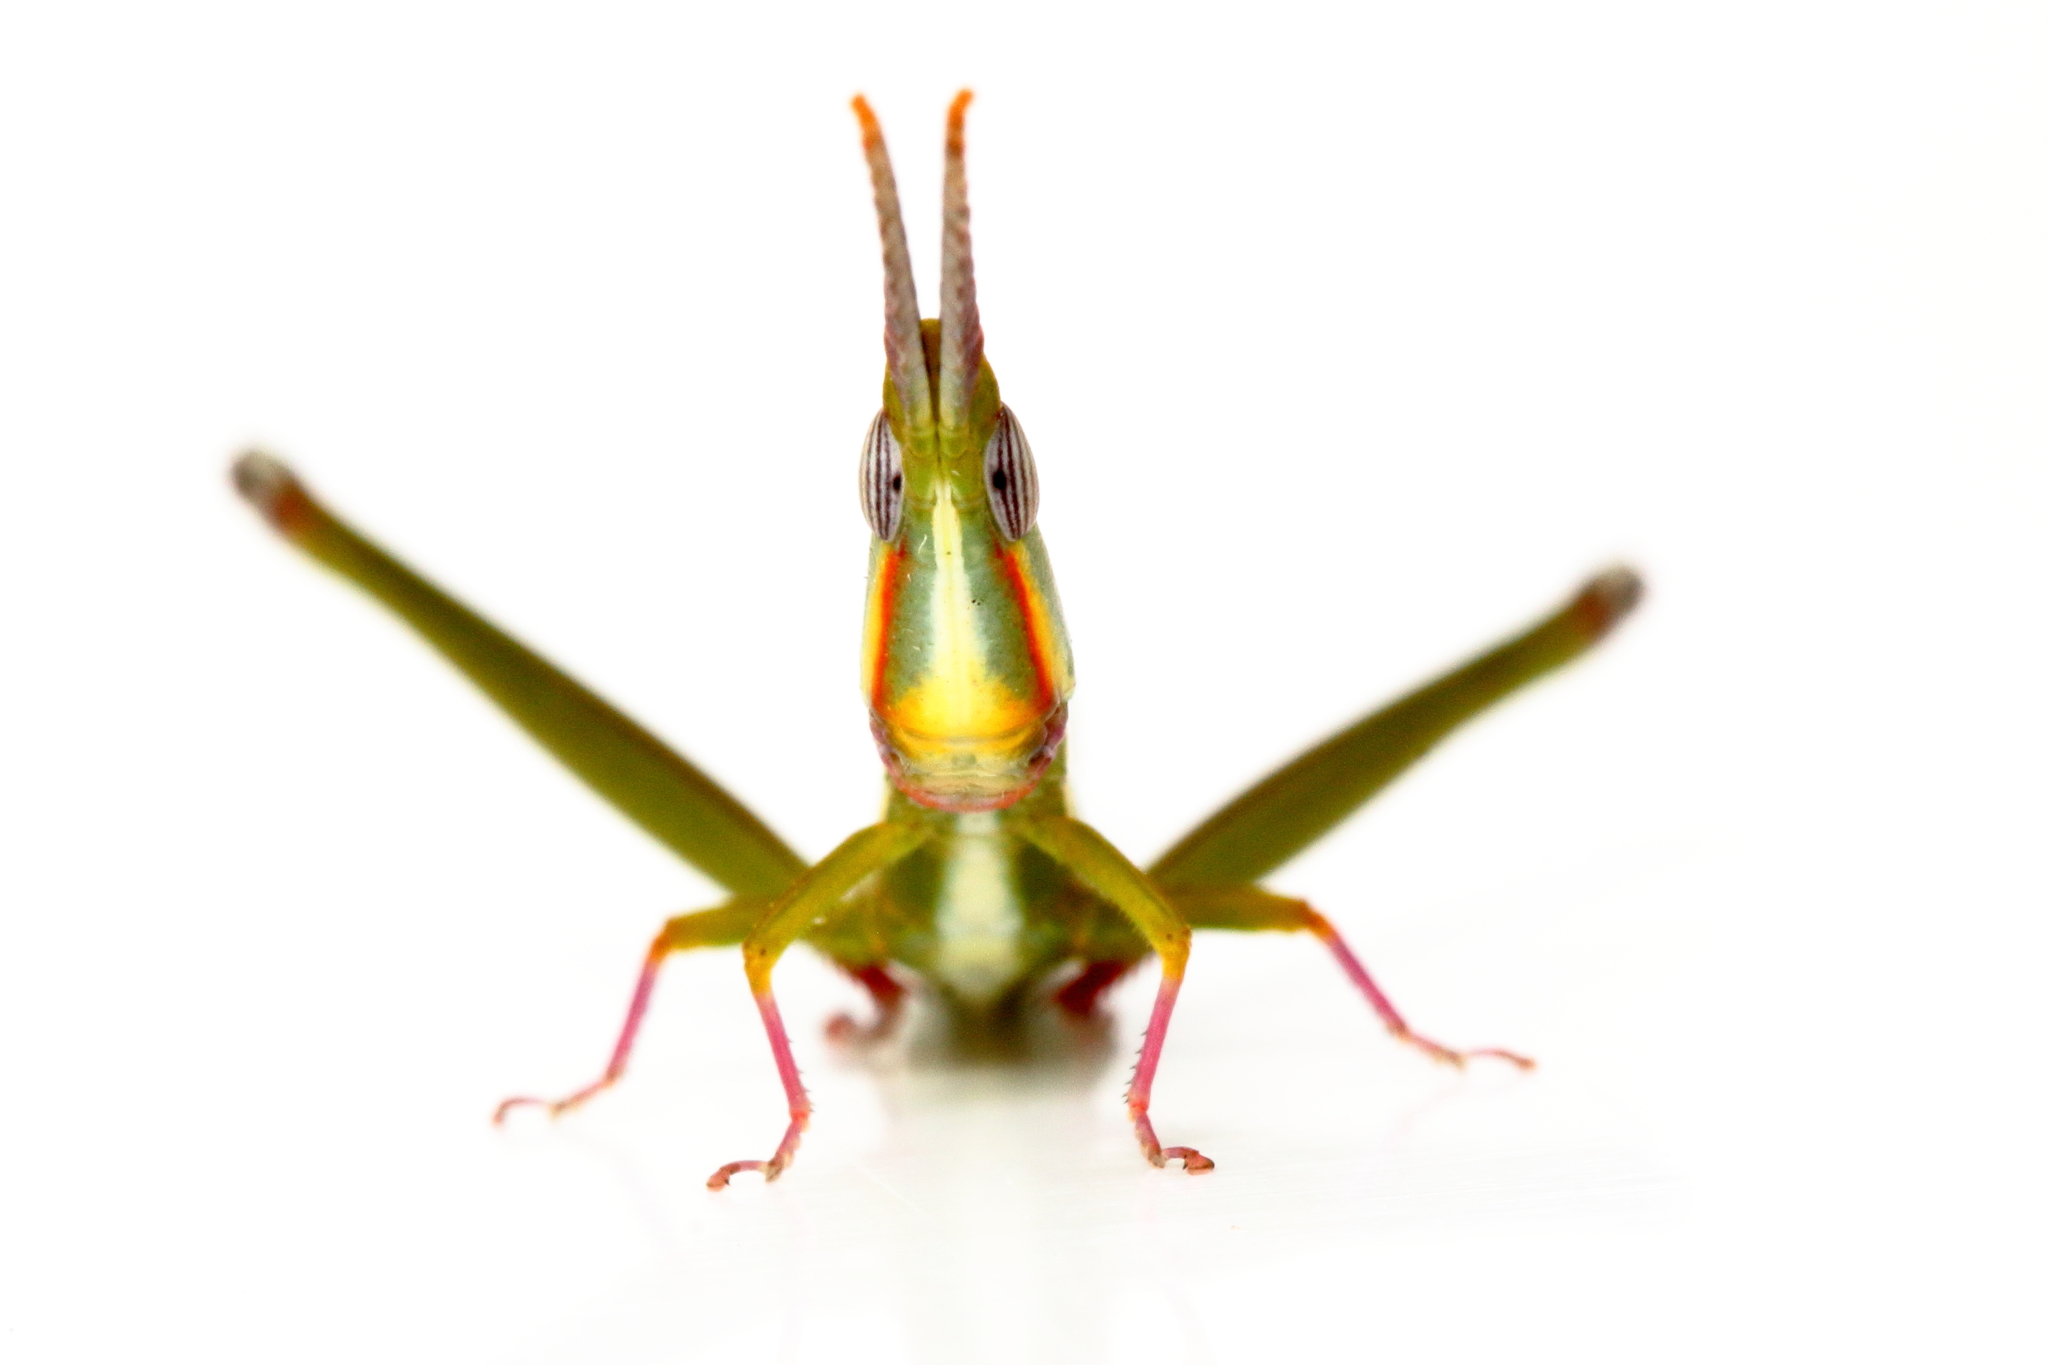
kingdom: Animalia
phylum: Arthropoda
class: Insecta
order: Orthoptera
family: Morabidae
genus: Warramaba
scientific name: Warramaba whitei
